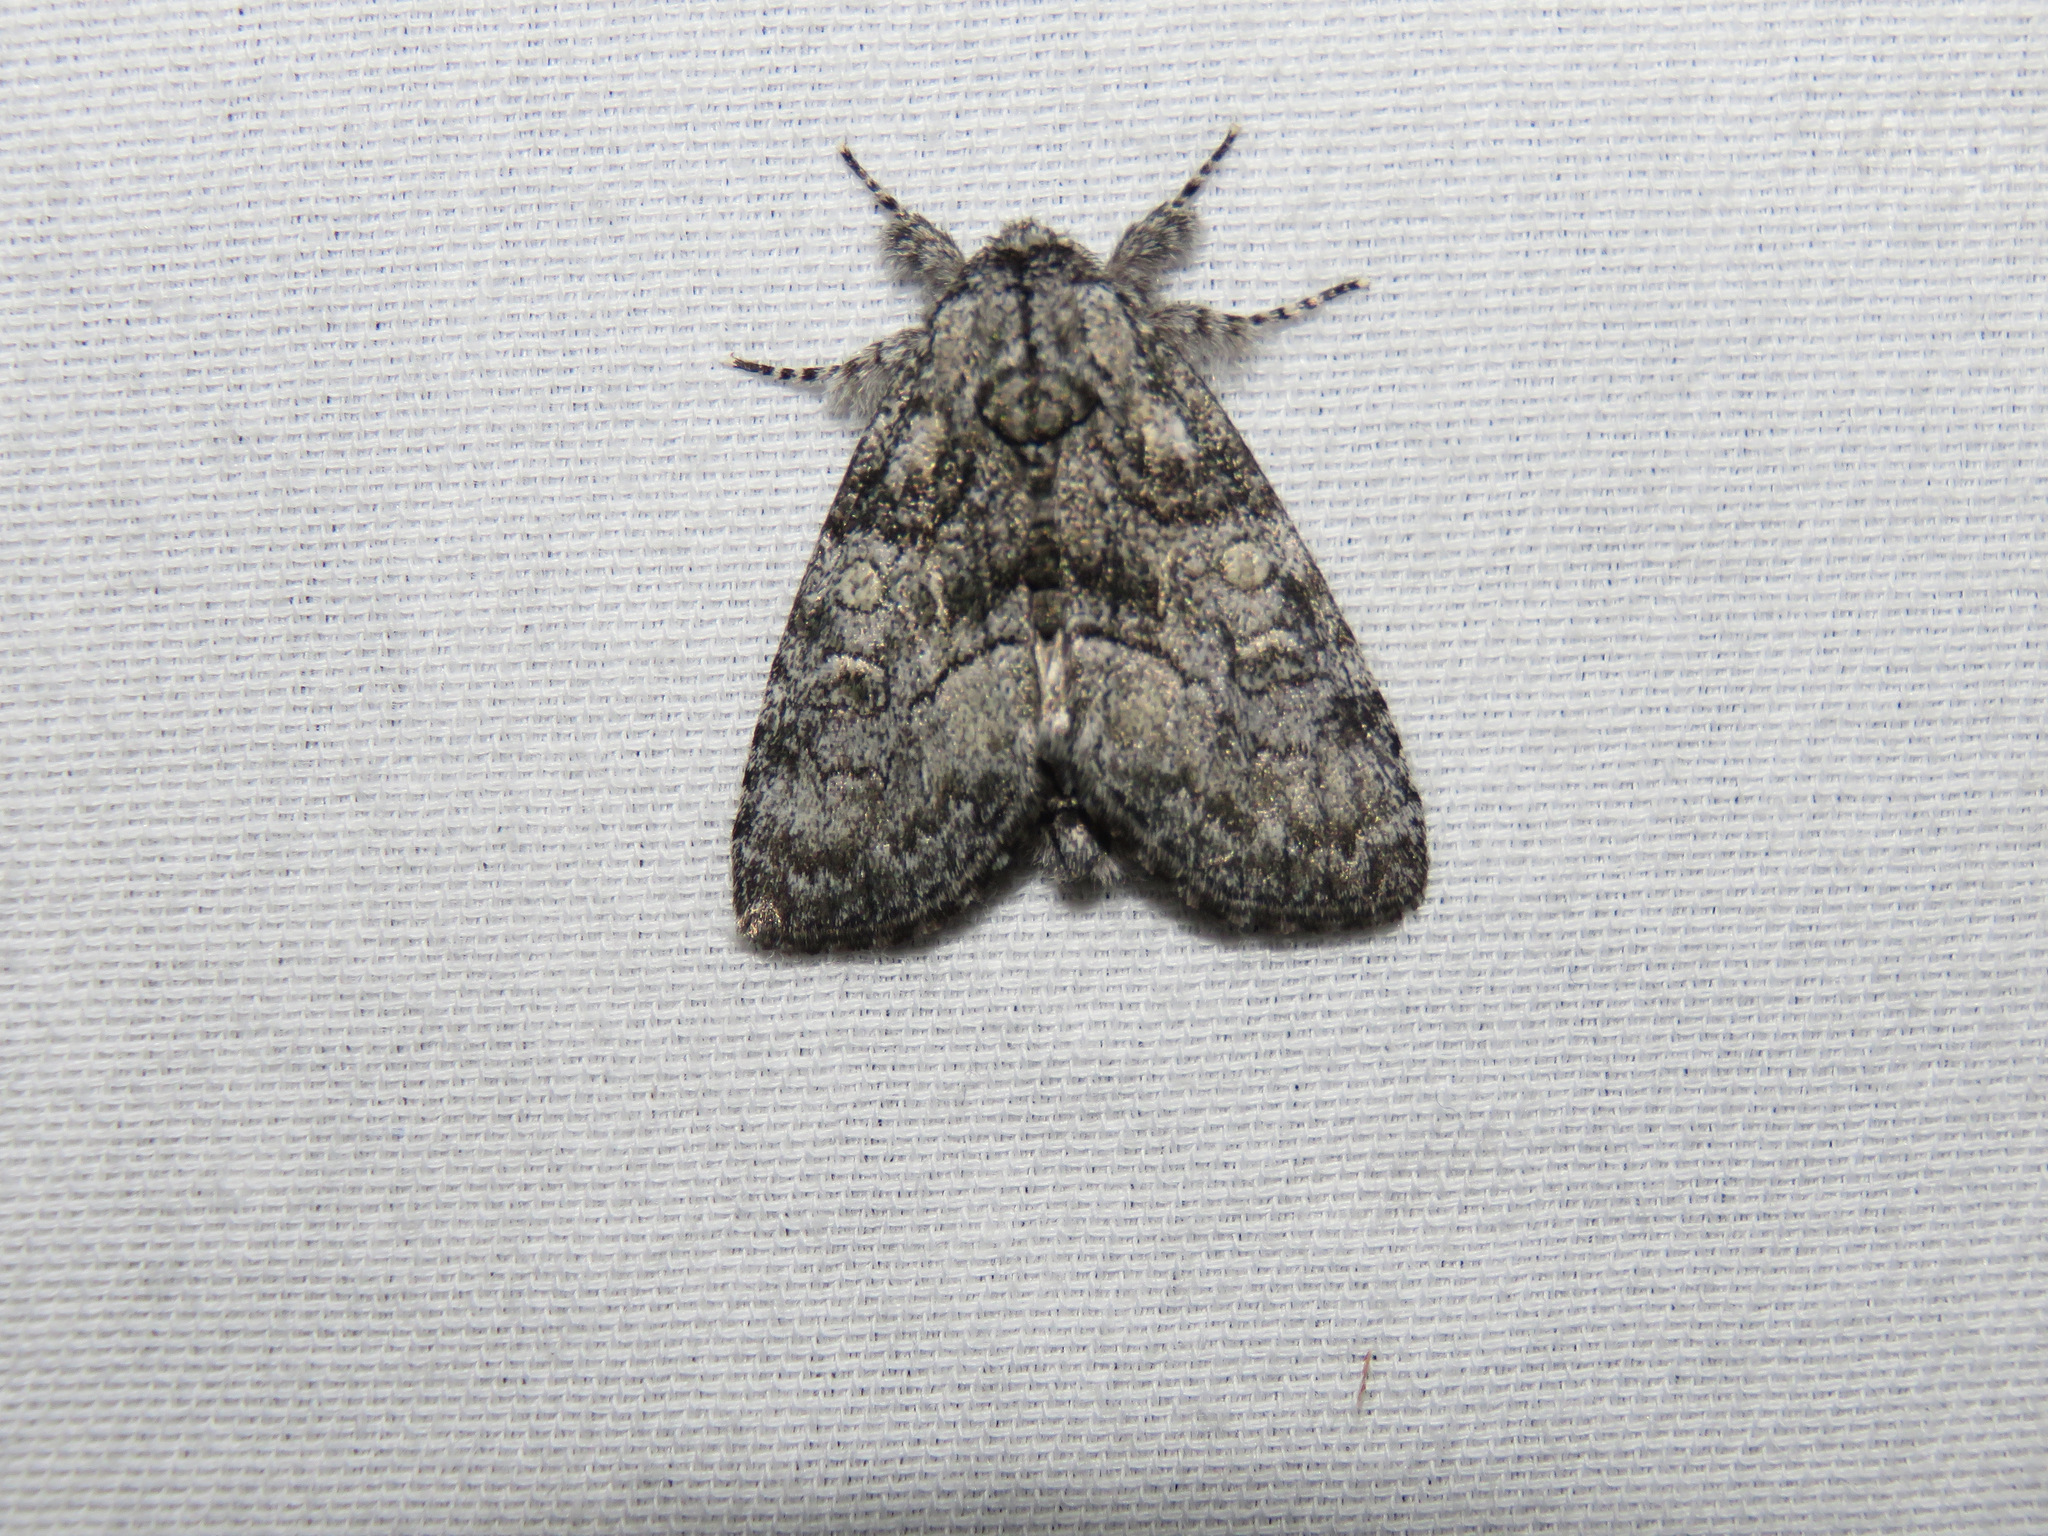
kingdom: Animalia
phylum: Arthropoda
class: Insecta
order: Lepidoptera
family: Noctuidae
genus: Raphia
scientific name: Raphia frater
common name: Brother
